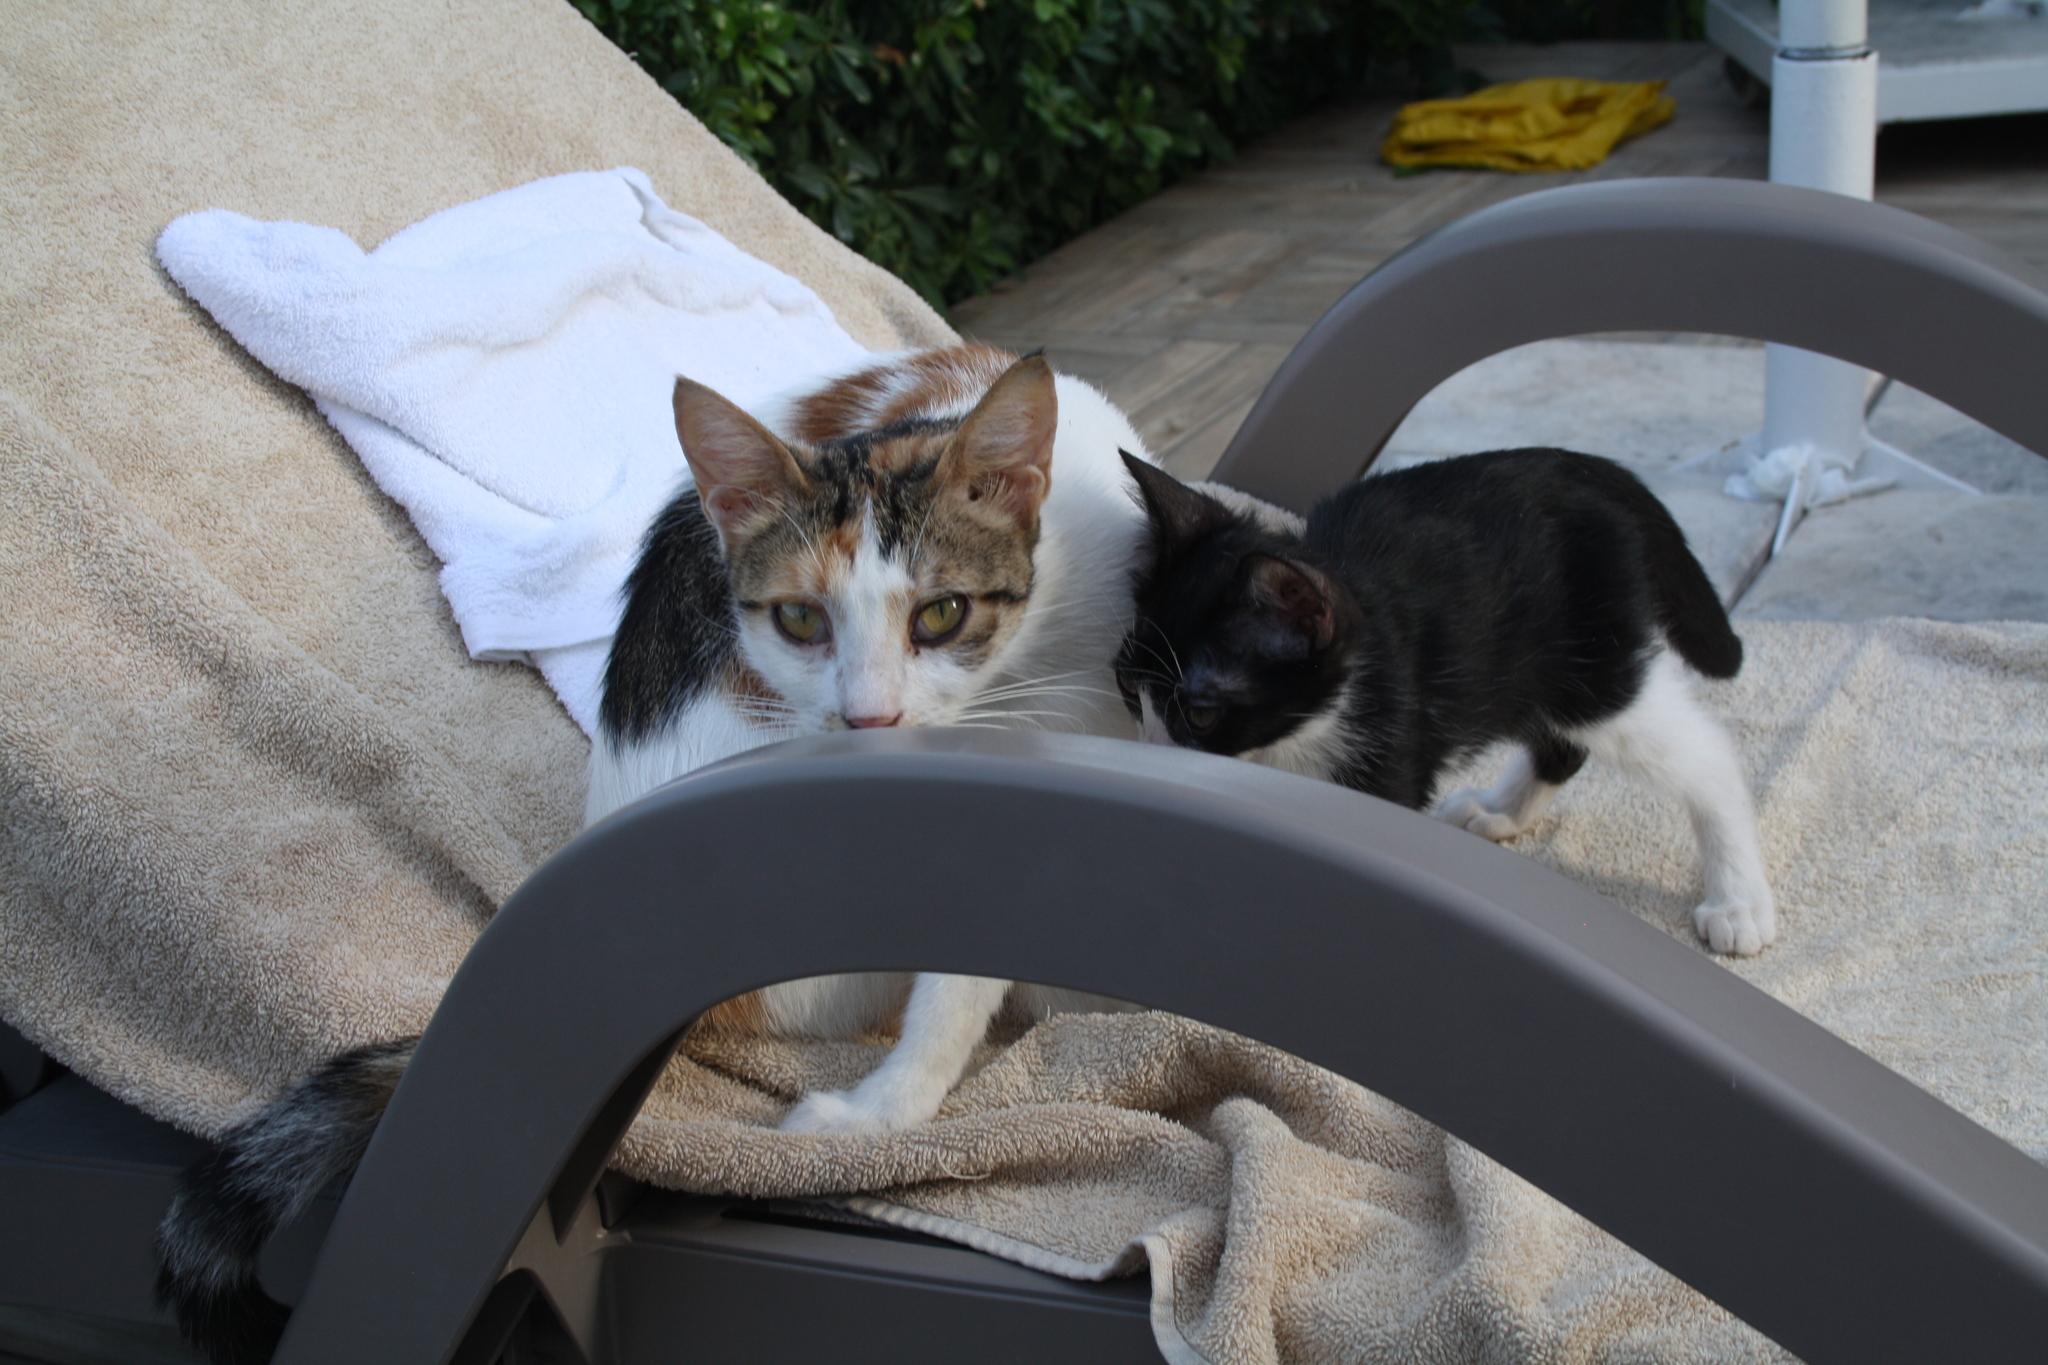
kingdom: Animalia
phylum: Chordata
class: Mammalia
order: Carnivora
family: Felidae
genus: Felis
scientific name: Felis catus
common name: Domestic cat
